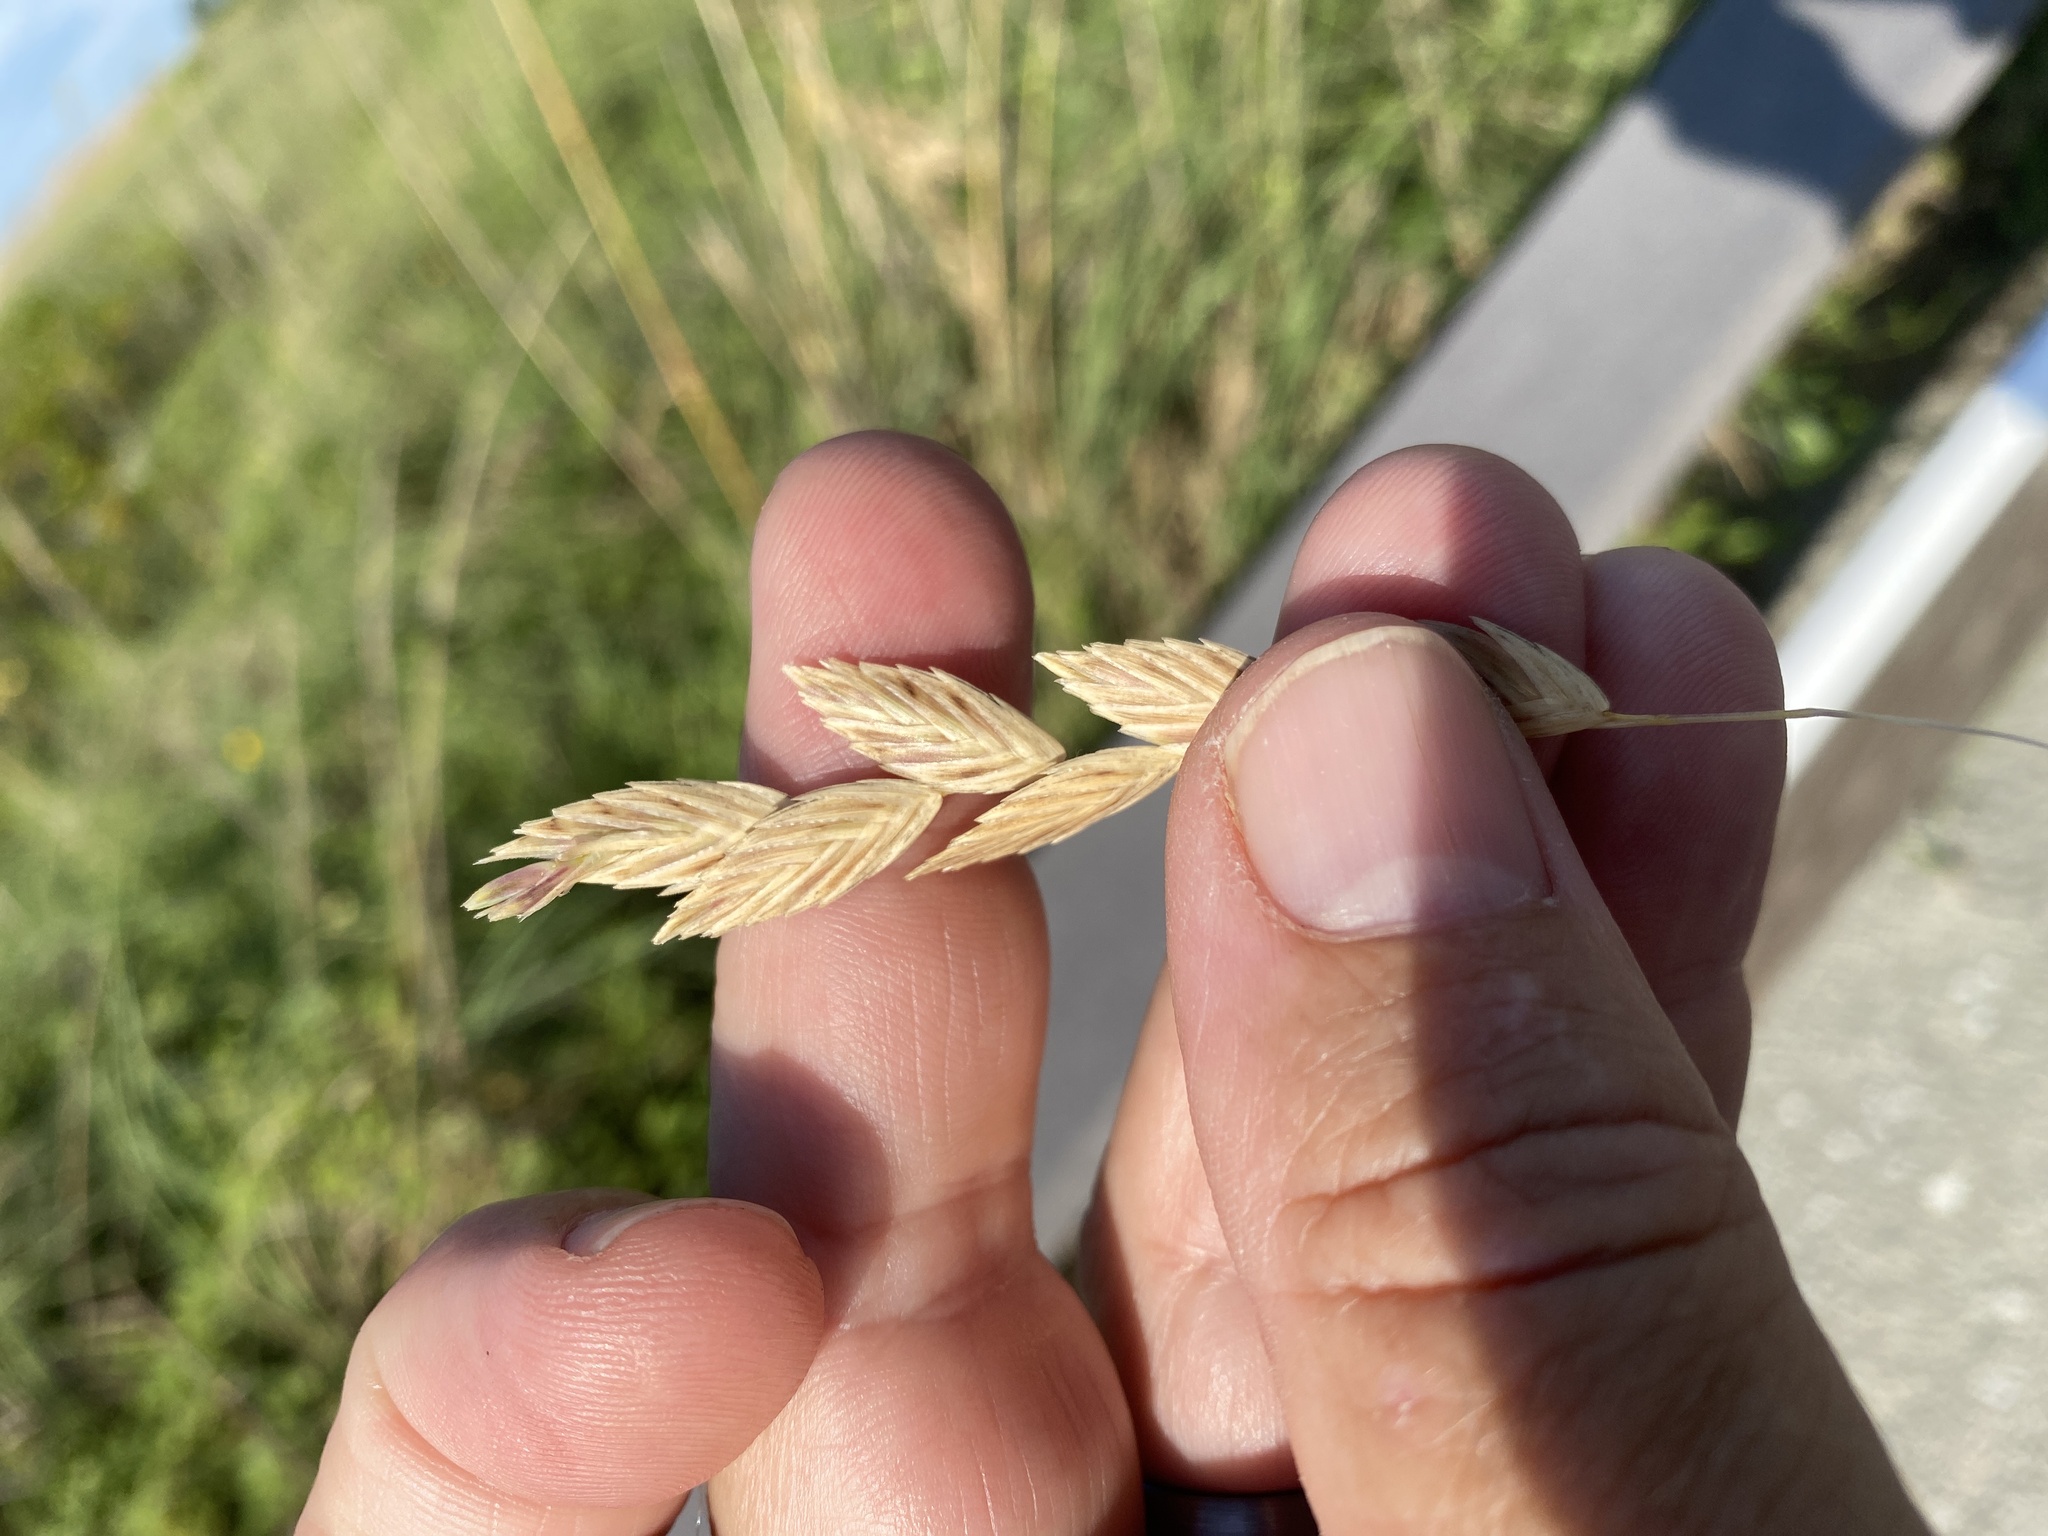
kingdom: Plantae
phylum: Tracheophyta
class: Liliopsida
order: Poales
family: Poaceae
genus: Uniola
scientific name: Uniola paniculata
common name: Seaside-oats
